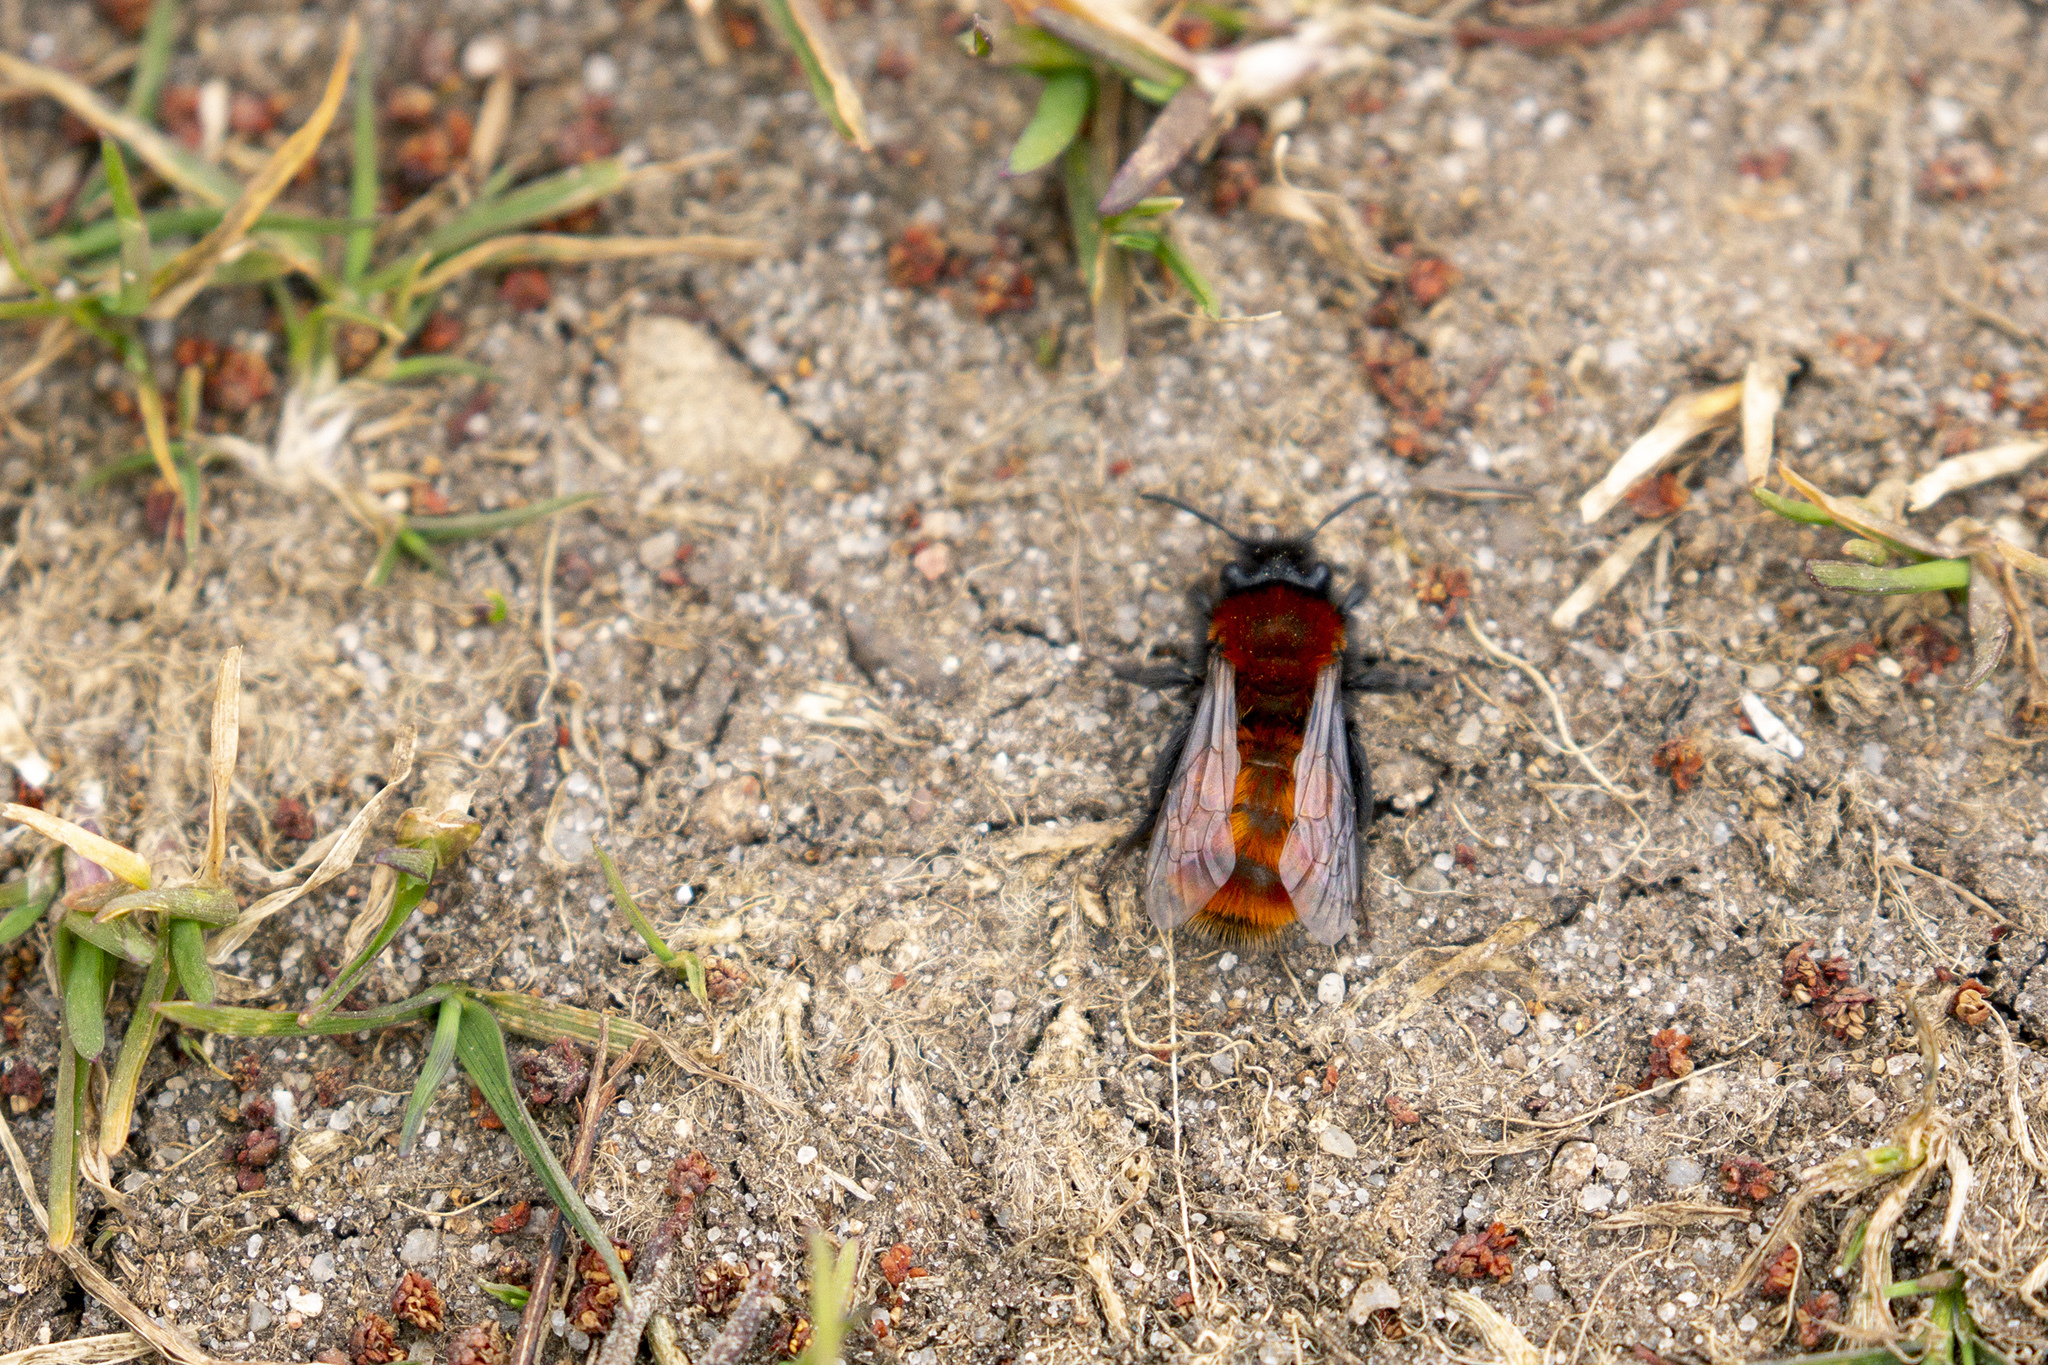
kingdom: Animalia
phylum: Arthropoda
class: Insecta
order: Hymenoptera
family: Andrenidae
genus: Andrena
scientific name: Andrena fulva
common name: Tawny mining bee
